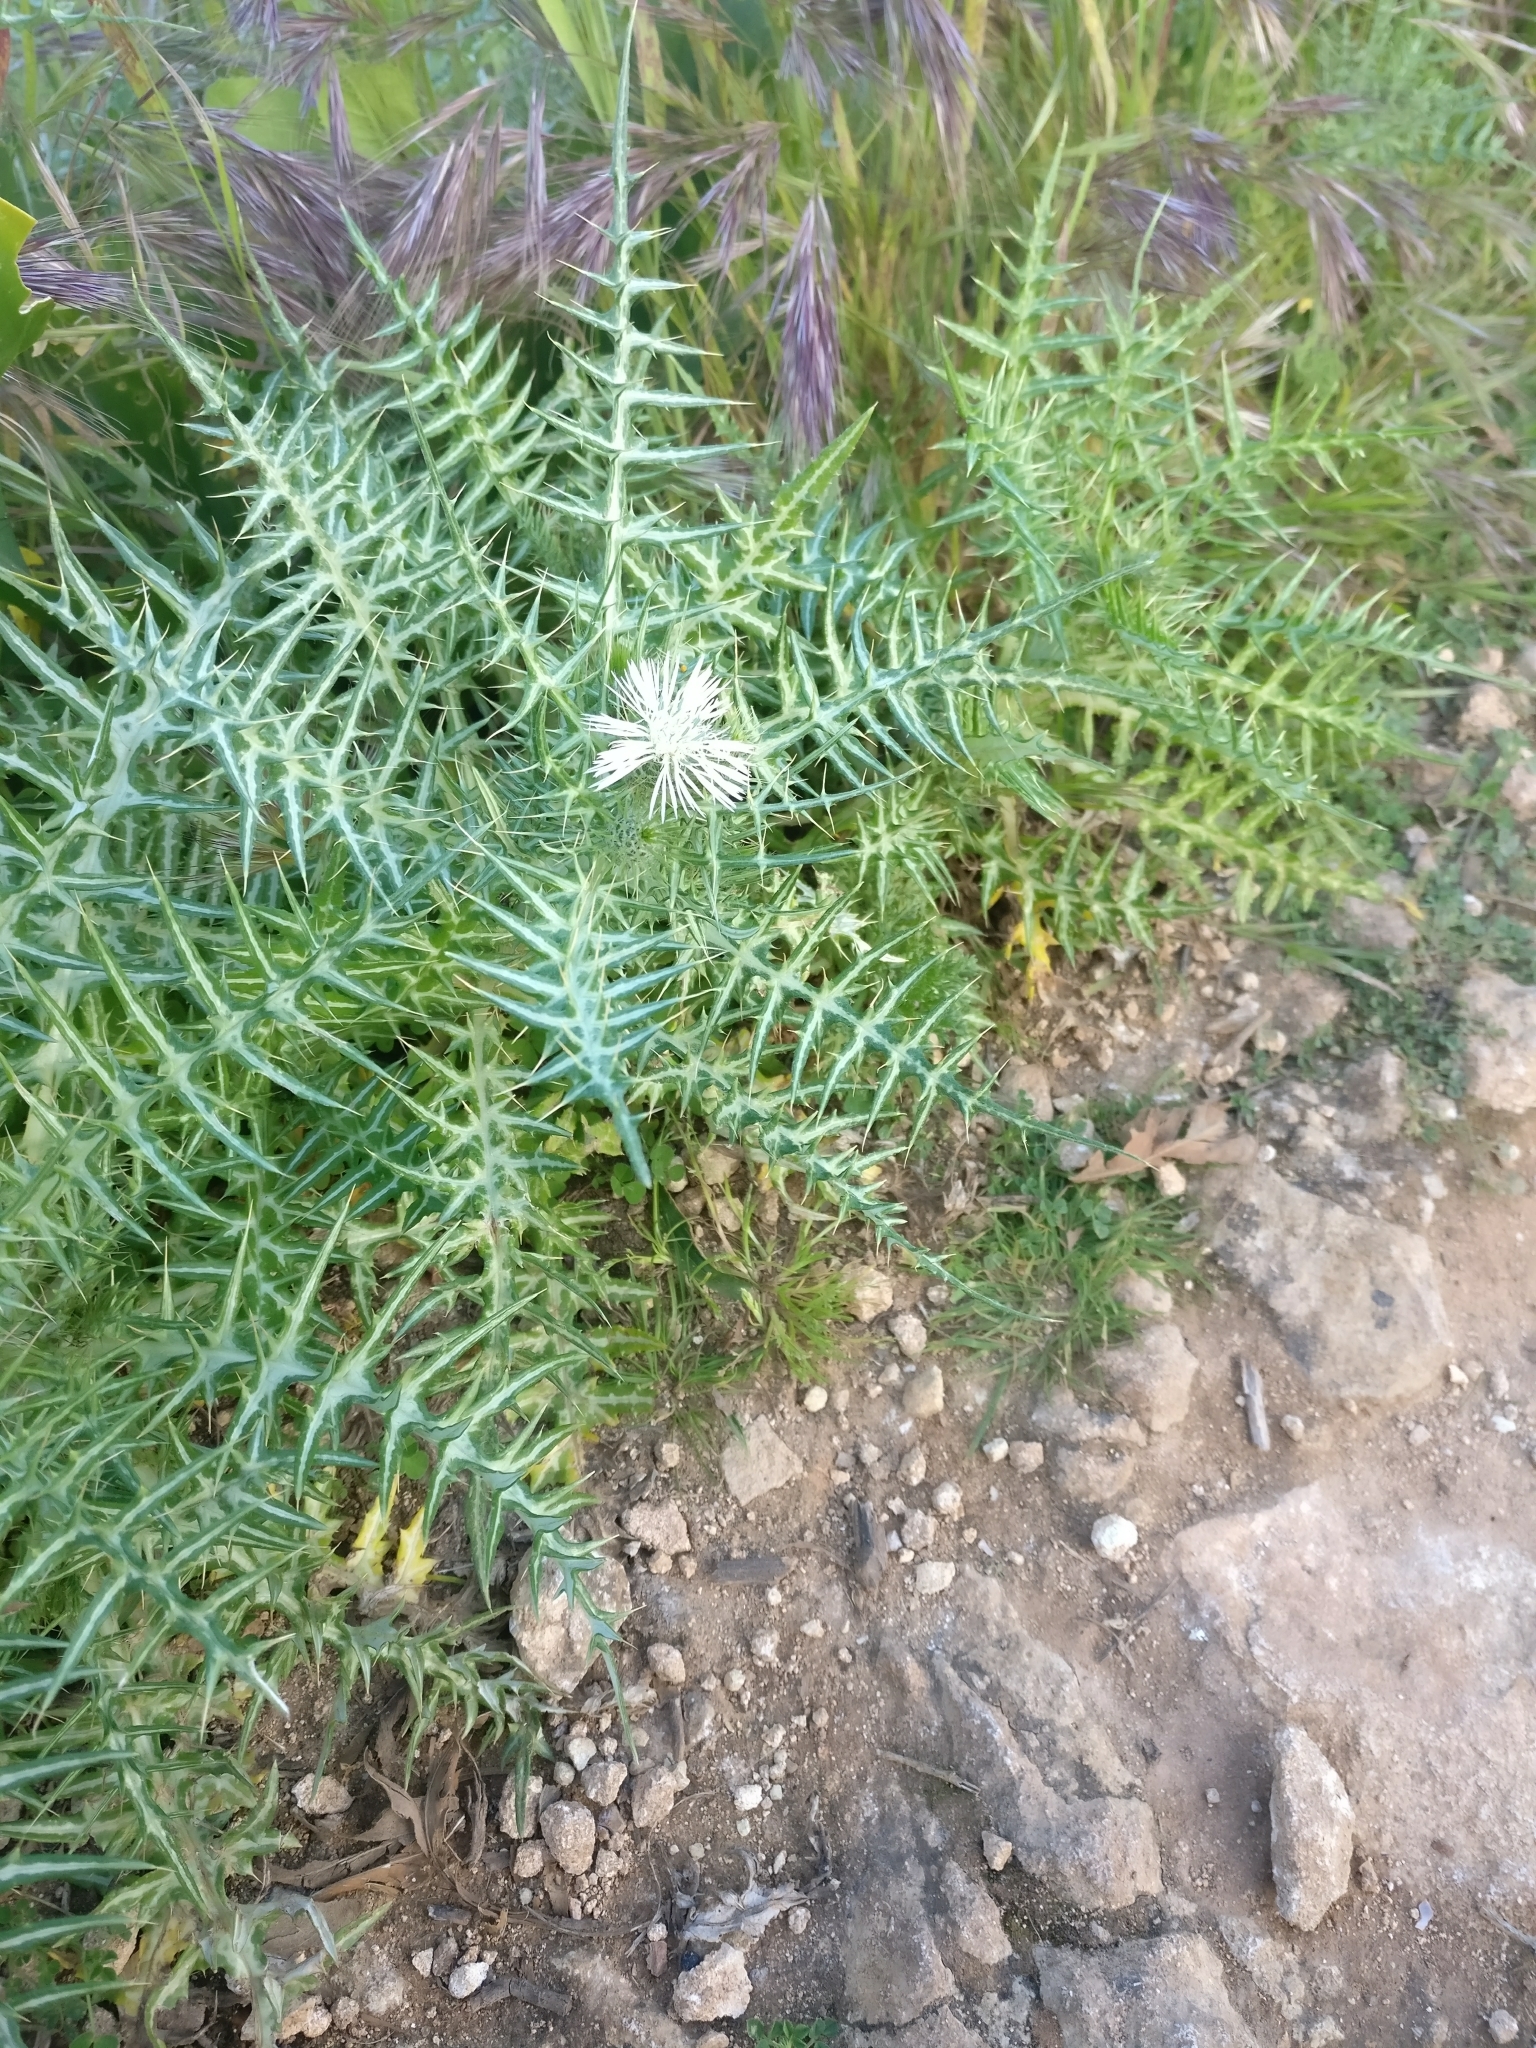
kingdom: Plantae
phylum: Tracheophyta
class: Magnoliopsida
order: Asterales
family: Asteraceae
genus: Galactites
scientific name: Galactites tomentosa
